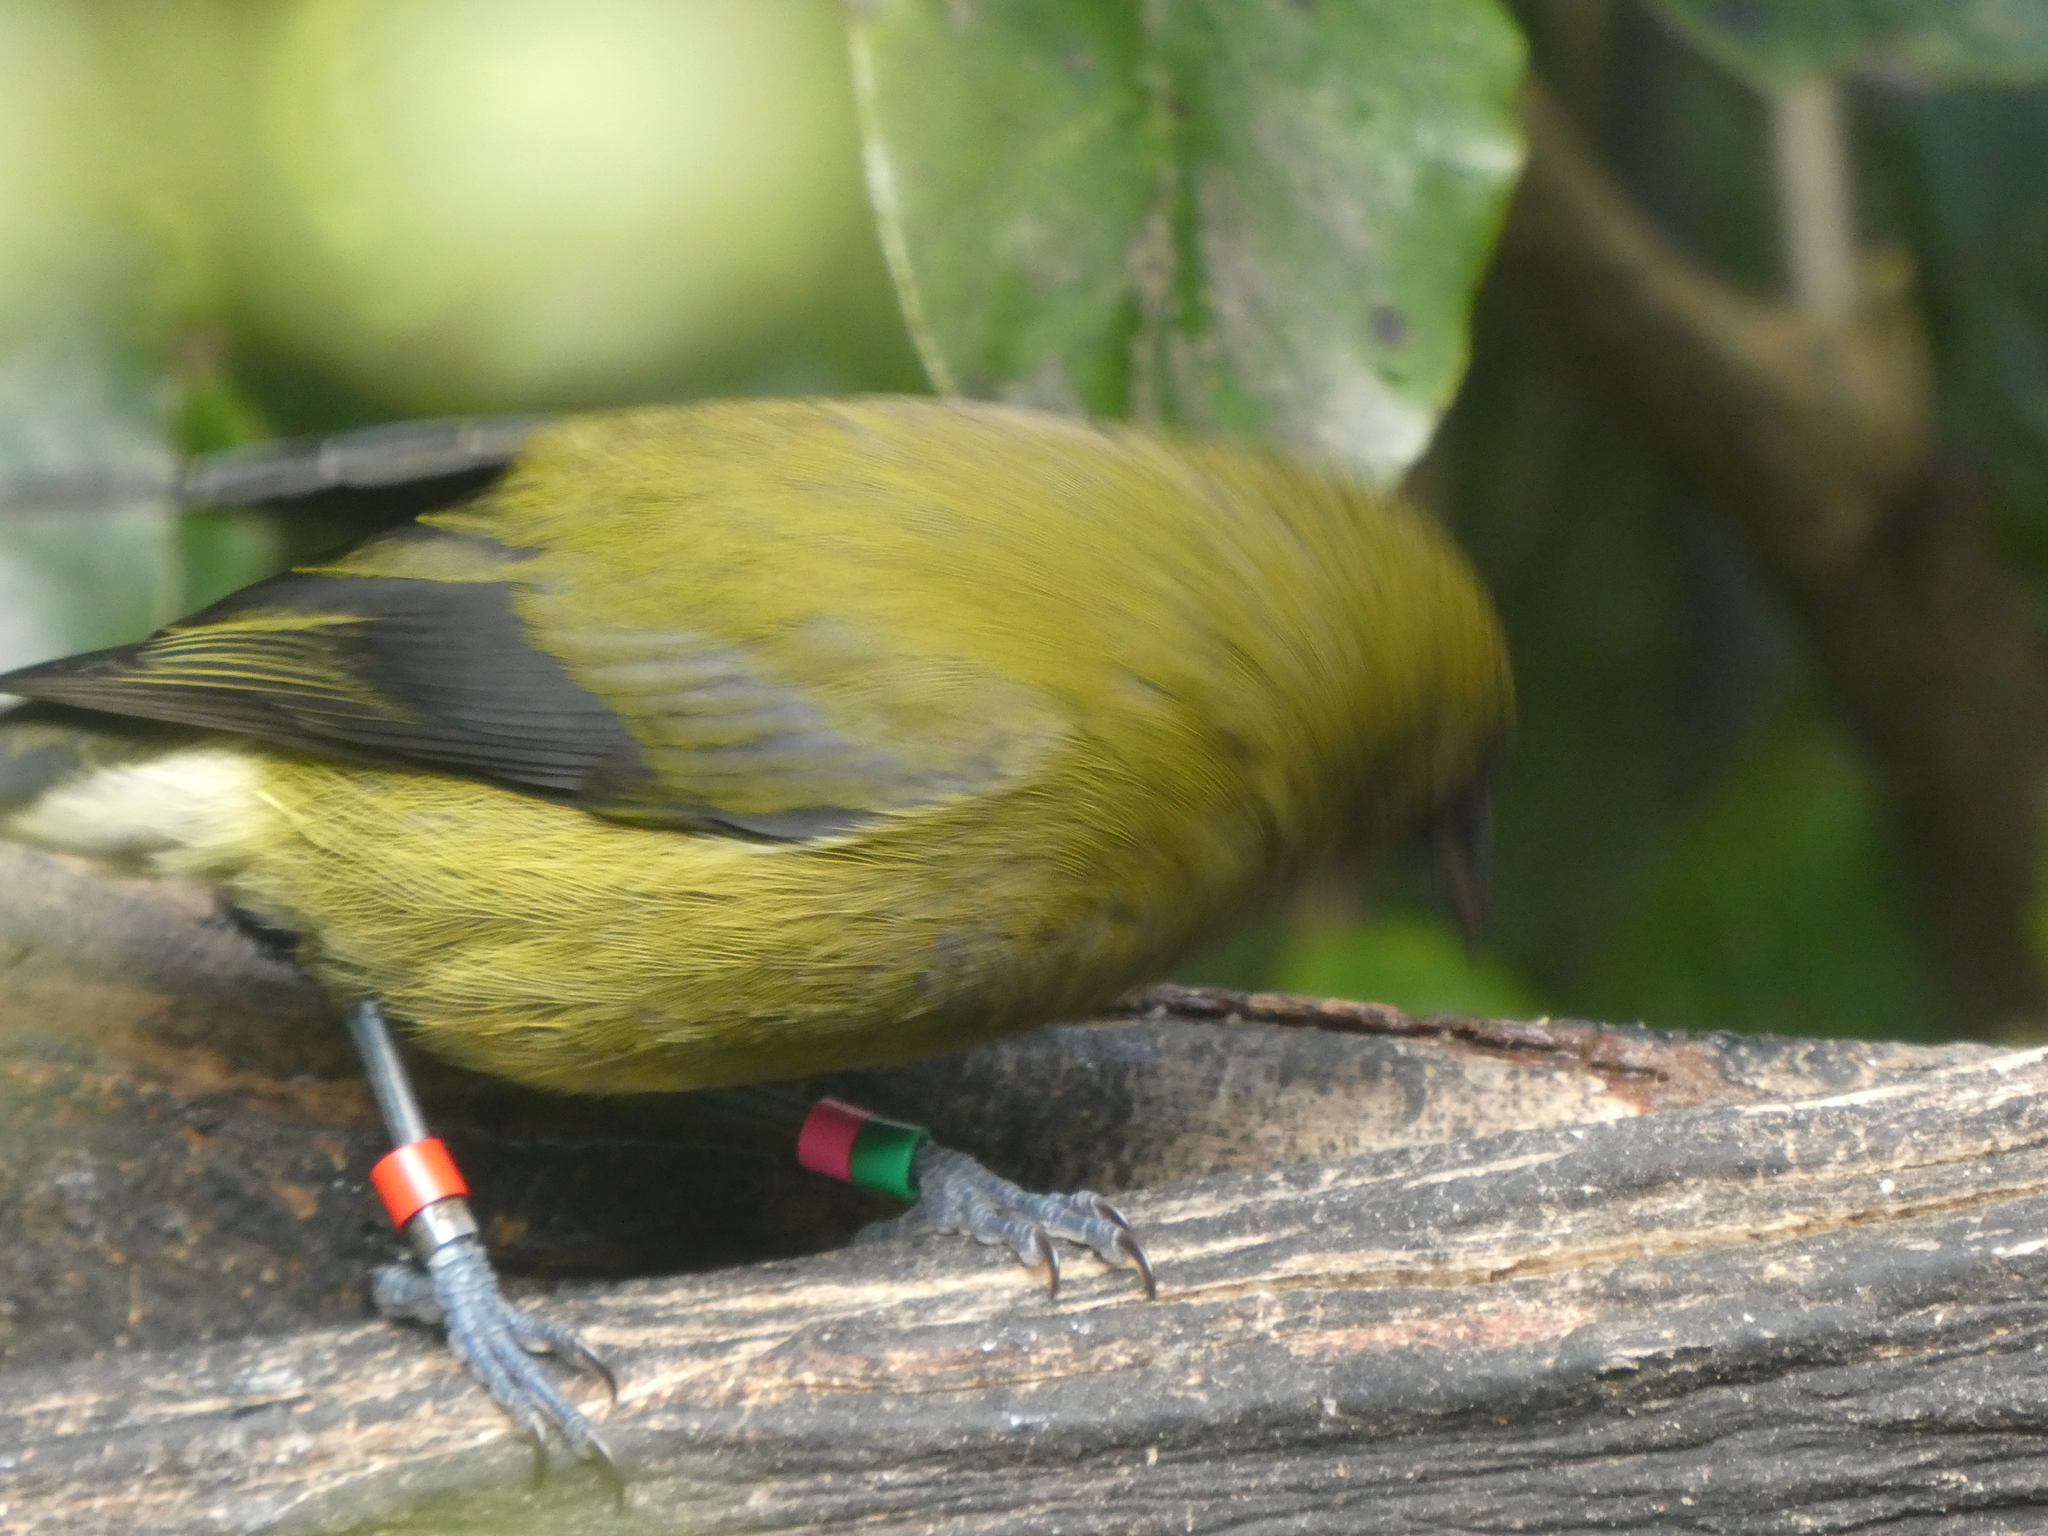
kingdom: Animalia
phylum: Chordata
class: Aves
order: Passeriformes
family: Meliphagidae
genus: Anthornis
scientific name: Anthornis melanura
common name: New zealand bellbird
